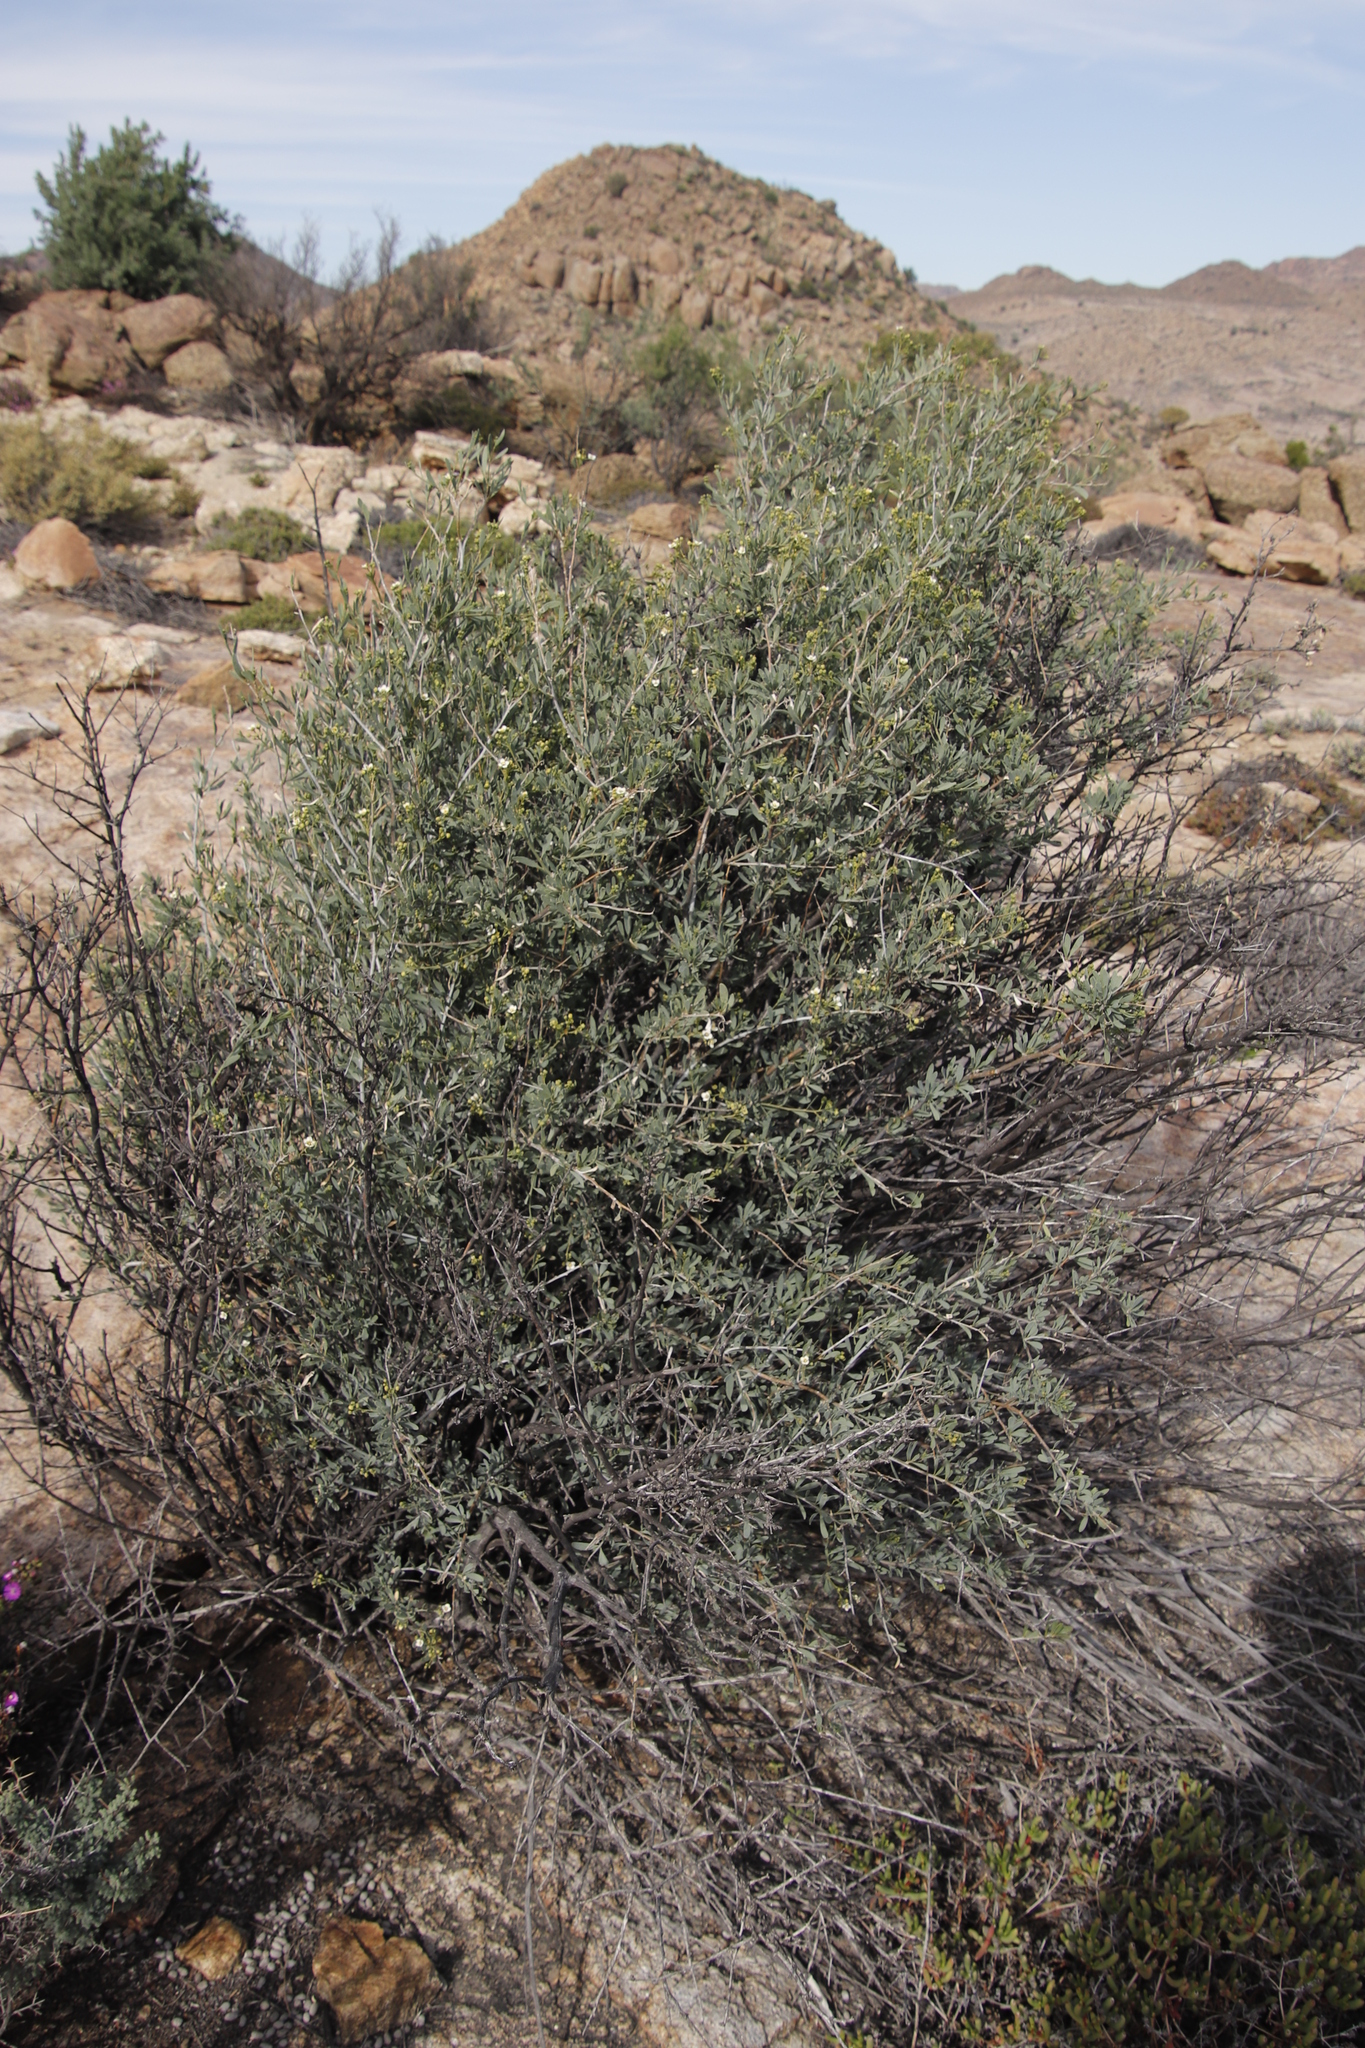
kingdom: Plantae
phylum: Tracheophyta
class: Magnoliopsida
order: Solanales
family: Montiniaceae
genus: Montinia
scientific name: Montinia caryophyllacea
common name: Wild clove-bush
